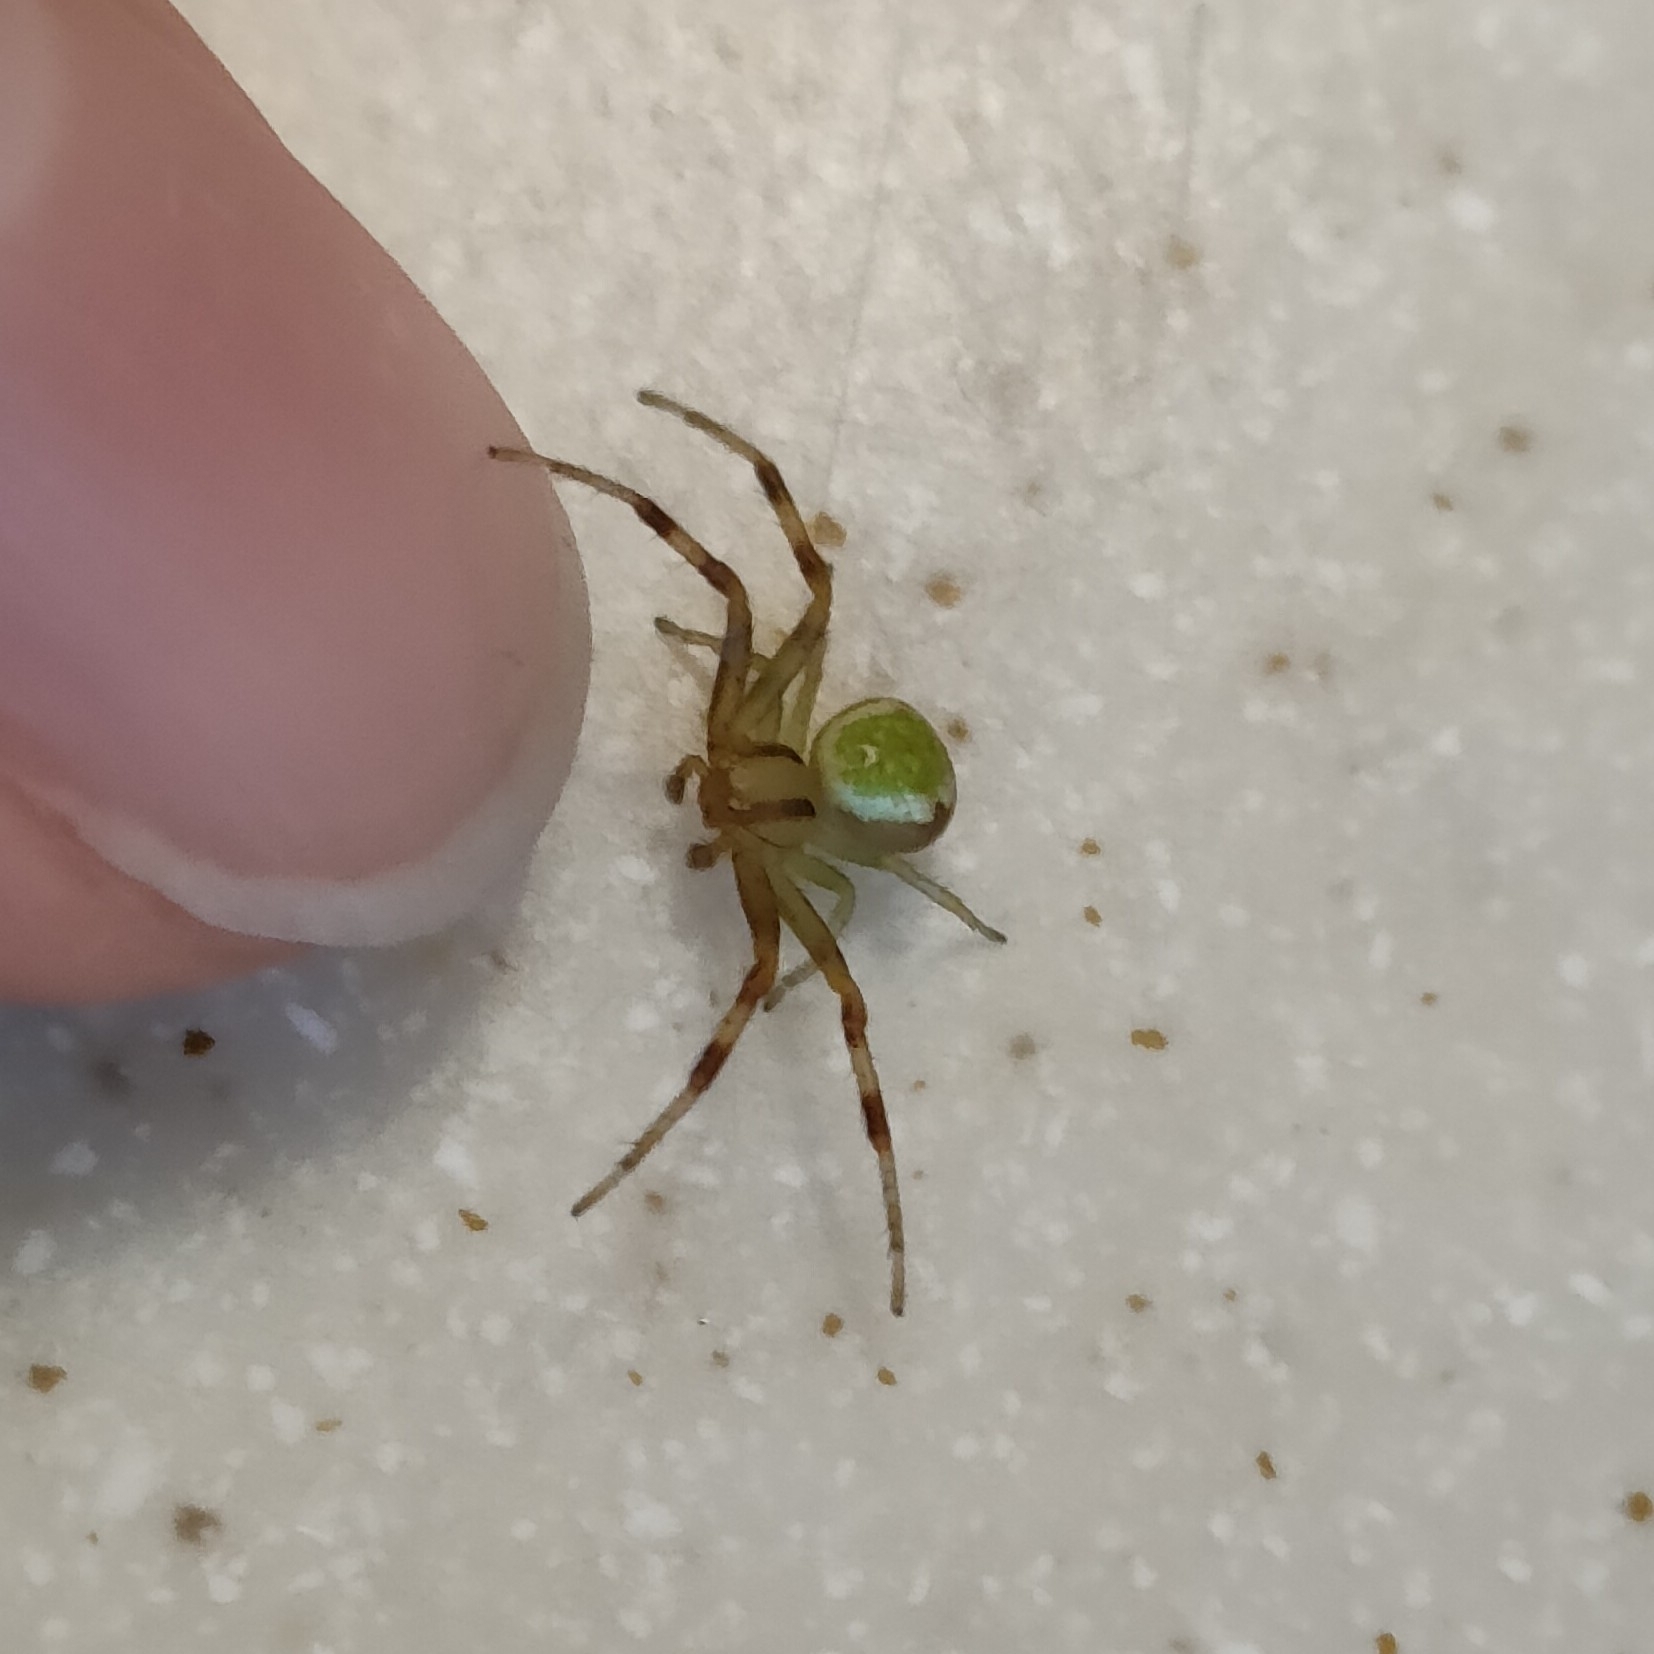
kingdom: Animalia
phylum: Arthropoda
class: Arachnida
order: Araneae
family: Thomisidae
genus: Ebrechtella
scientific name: Ebrechtella tricuspidata
